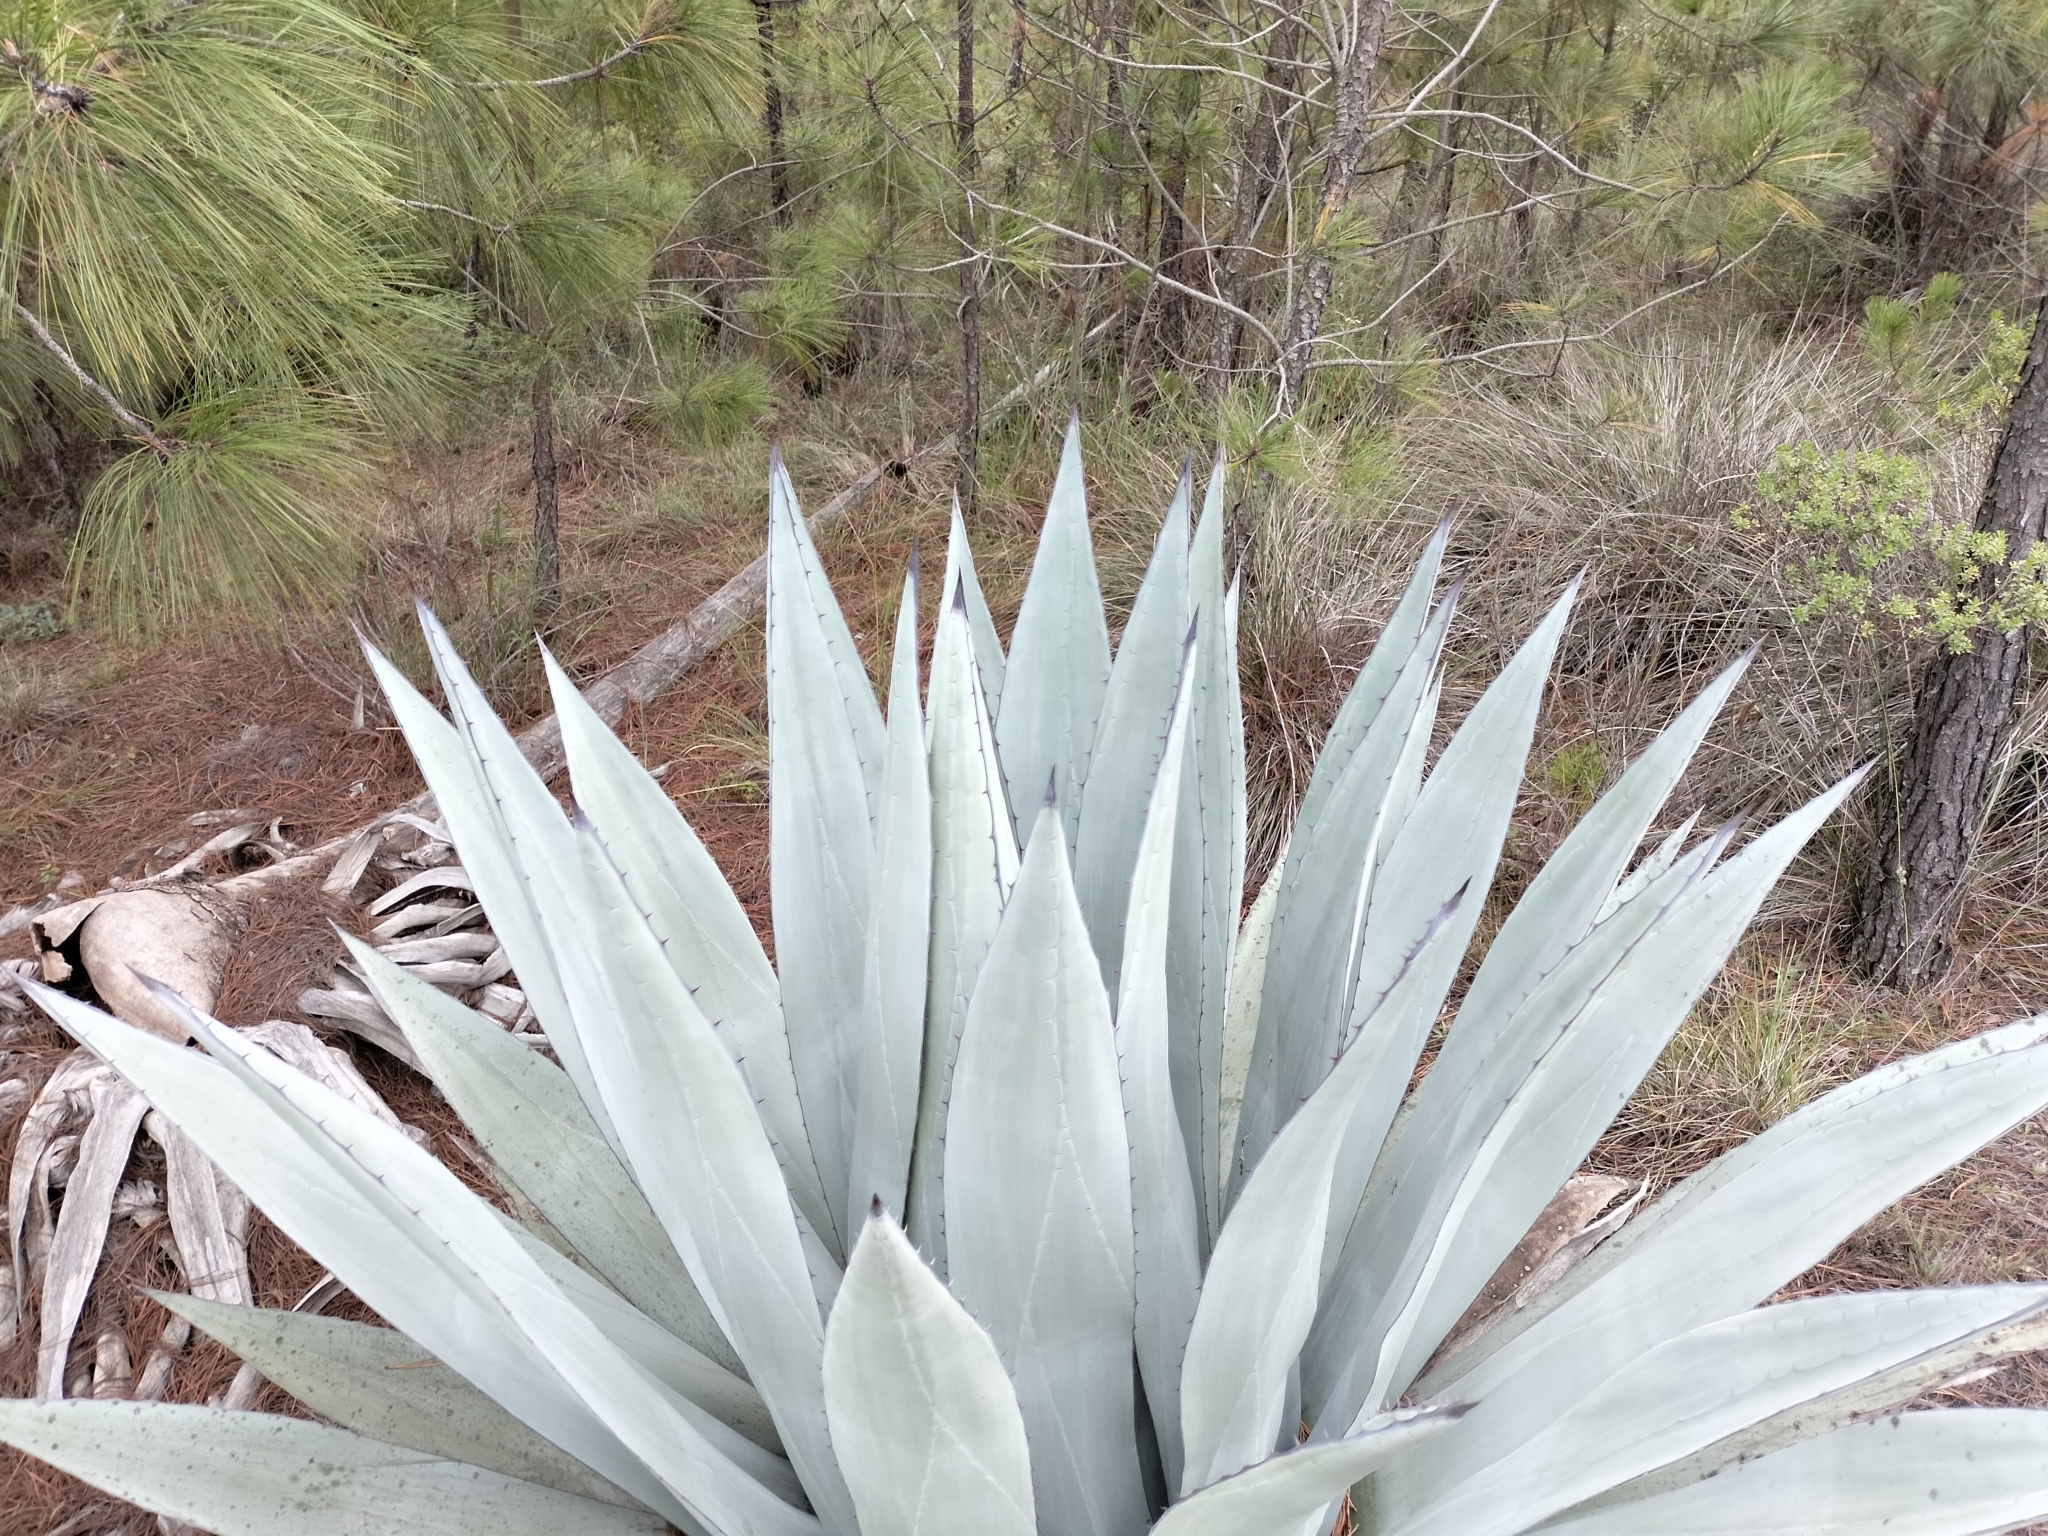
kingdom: Plantae
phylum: Tracheophyta
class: Liliopsida
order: Asparagales
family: Asparagaceae
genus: Agave
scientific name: Agave applanata
